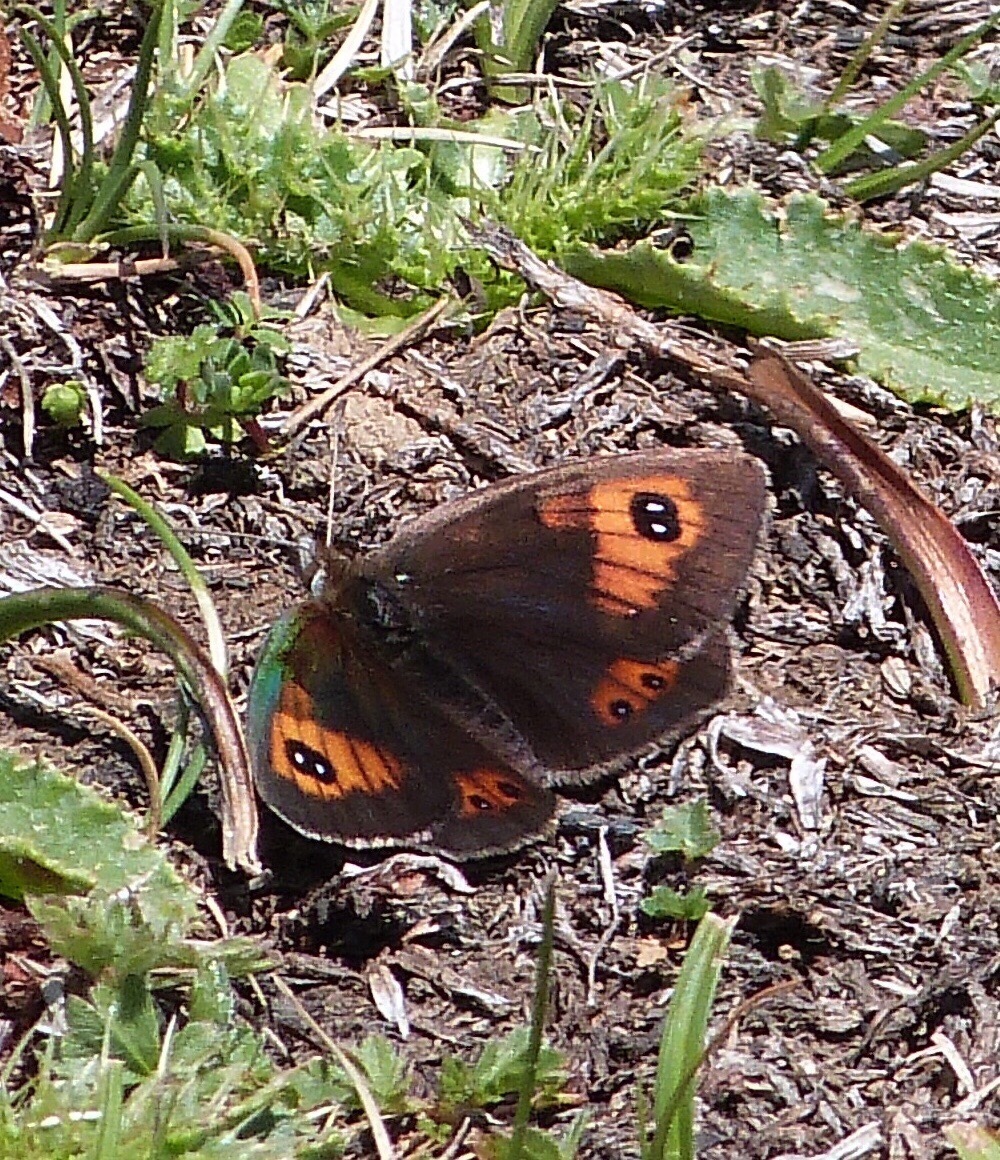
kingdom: Animalia
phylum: Arthropoda
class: Insecta
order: Lepidoptera
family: Nymphalidae
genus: Erebia
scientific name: Erebia tyndarus
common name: Swiss brassy ringlet
